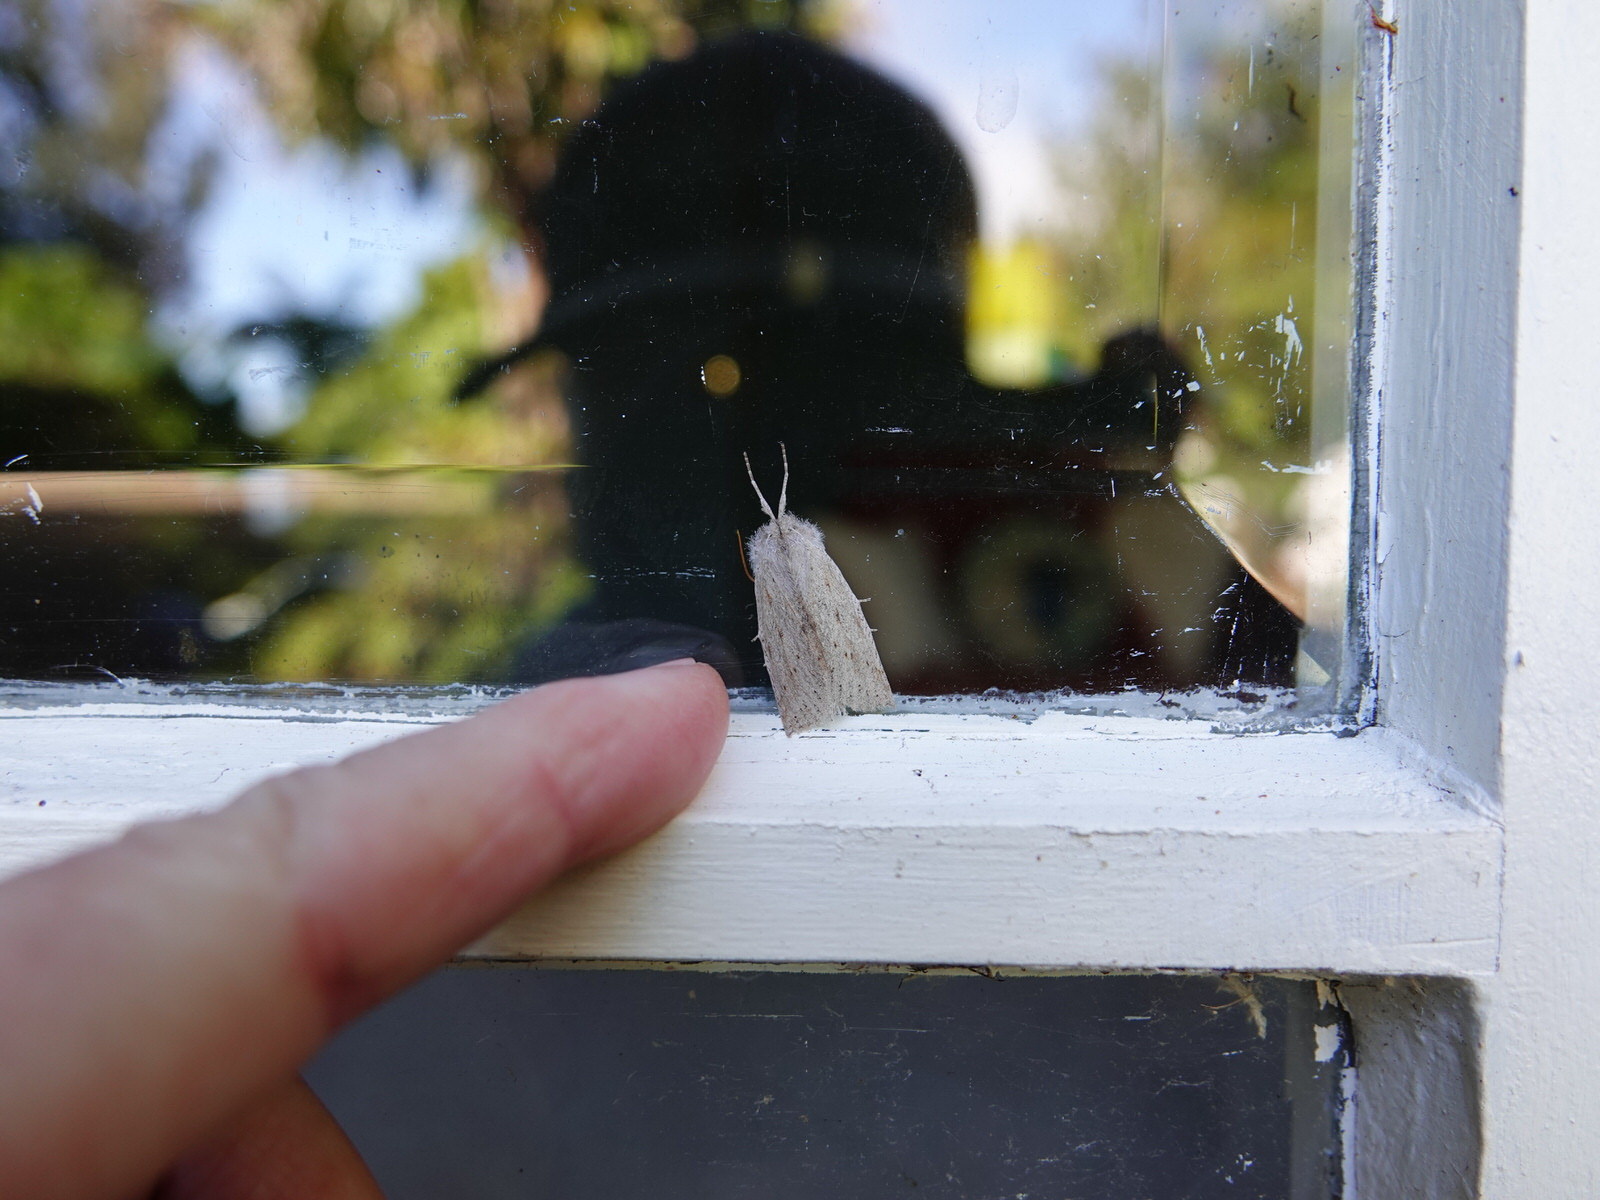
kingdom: Animalia
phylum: Arthropoda
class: Insecta
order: Lepidoptera
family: Geometridae
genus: Declana
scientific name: Declana leptomera
